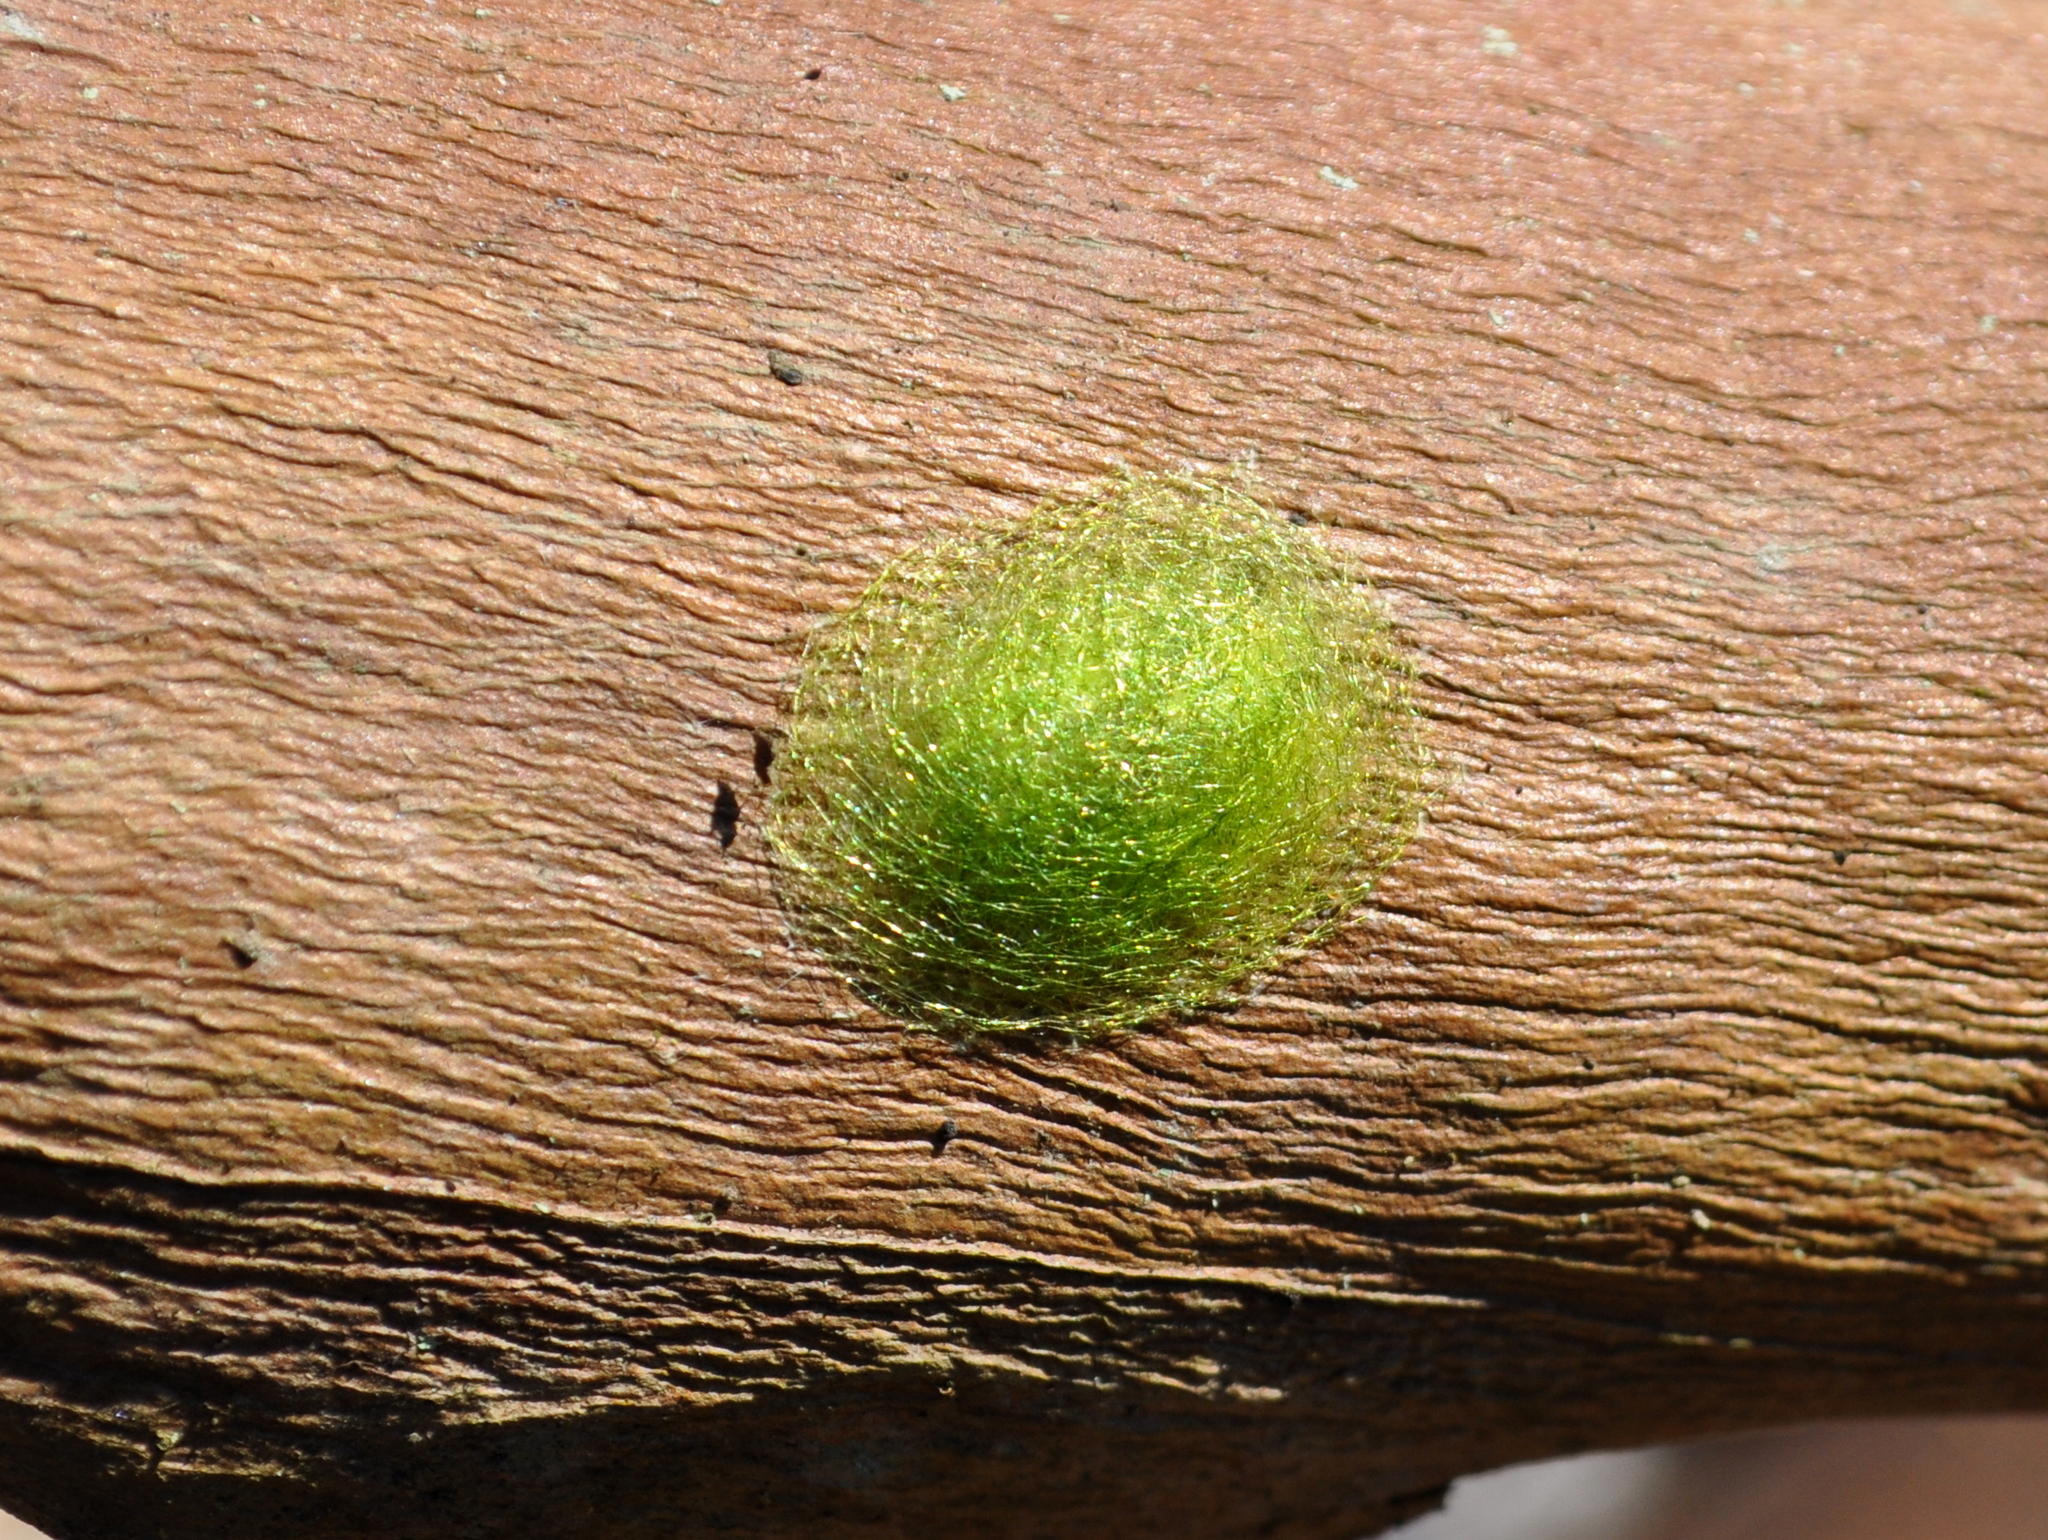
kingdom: Animalia
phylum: Arthropoda
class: Arachnida
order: Araneae
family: Araneidae
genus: Gasteracantha
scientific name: Gasteracantha cancriformis
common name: Orb weavers
